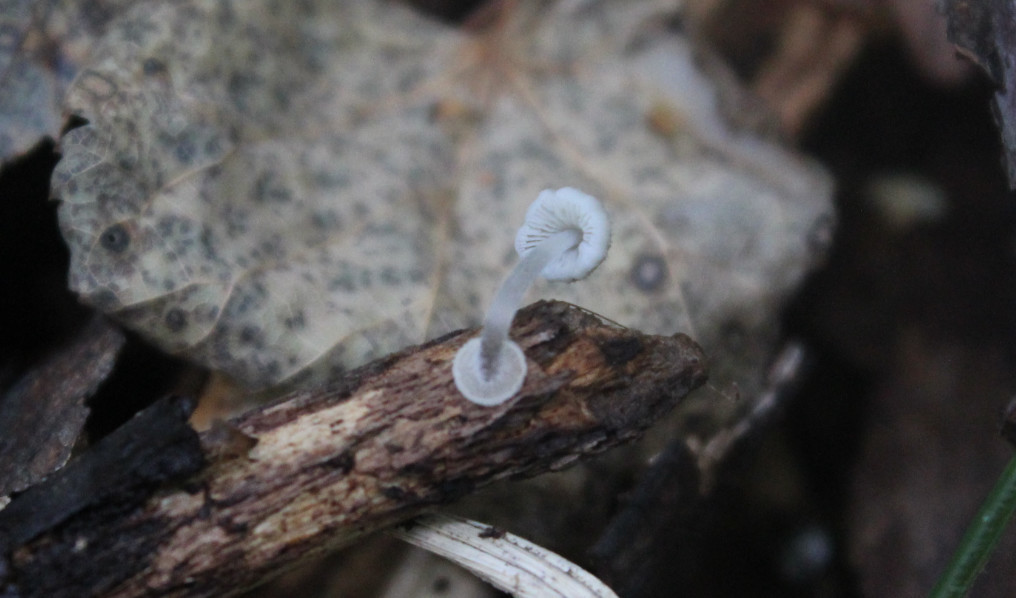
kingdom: Fungi
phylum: Basidiomycota
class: Agaricomycetes
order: Agaricales
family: Mycenaceae
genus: Mycena
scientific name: Mycena tenuispinosa
